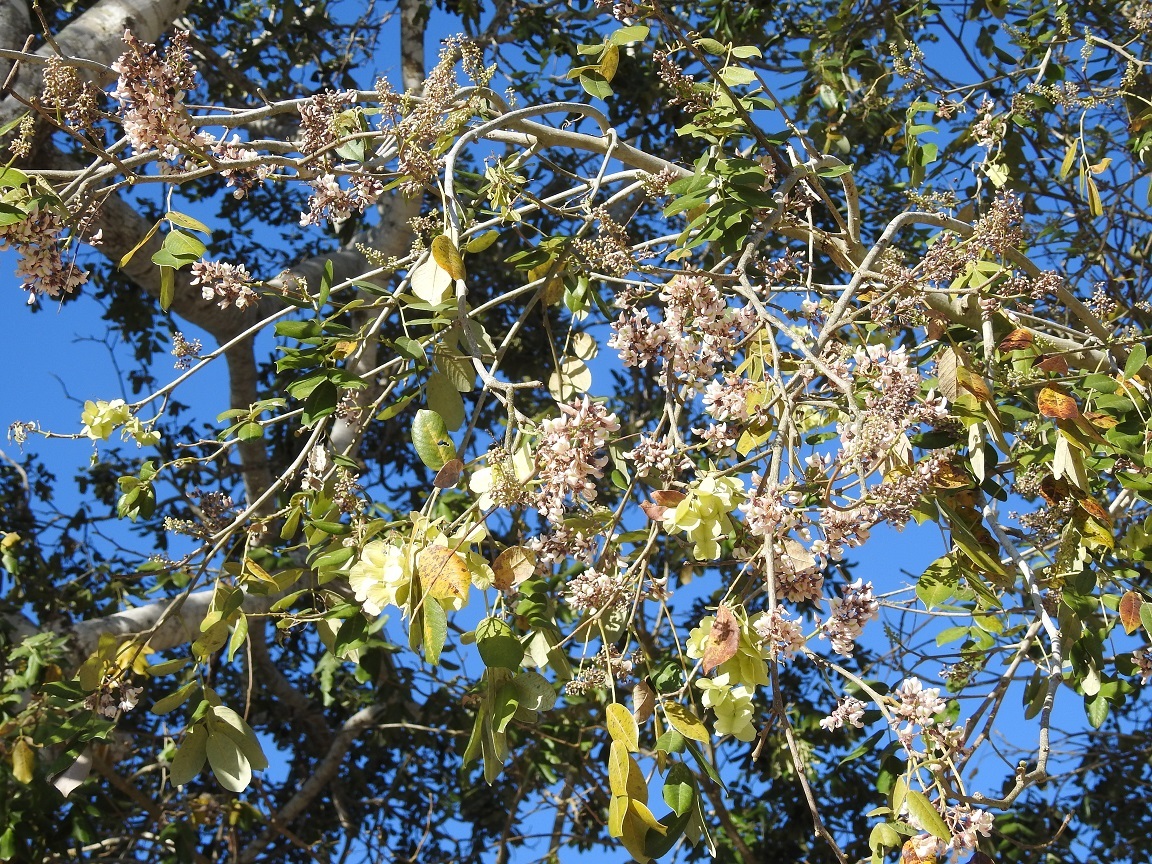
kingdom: Plantae
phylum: Tracheophyta
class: Magnoliopsida
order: Fabales
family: Fabaceae
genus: Piscidia
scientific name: Piscidia piscipula
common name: Florida fishpoison tree
